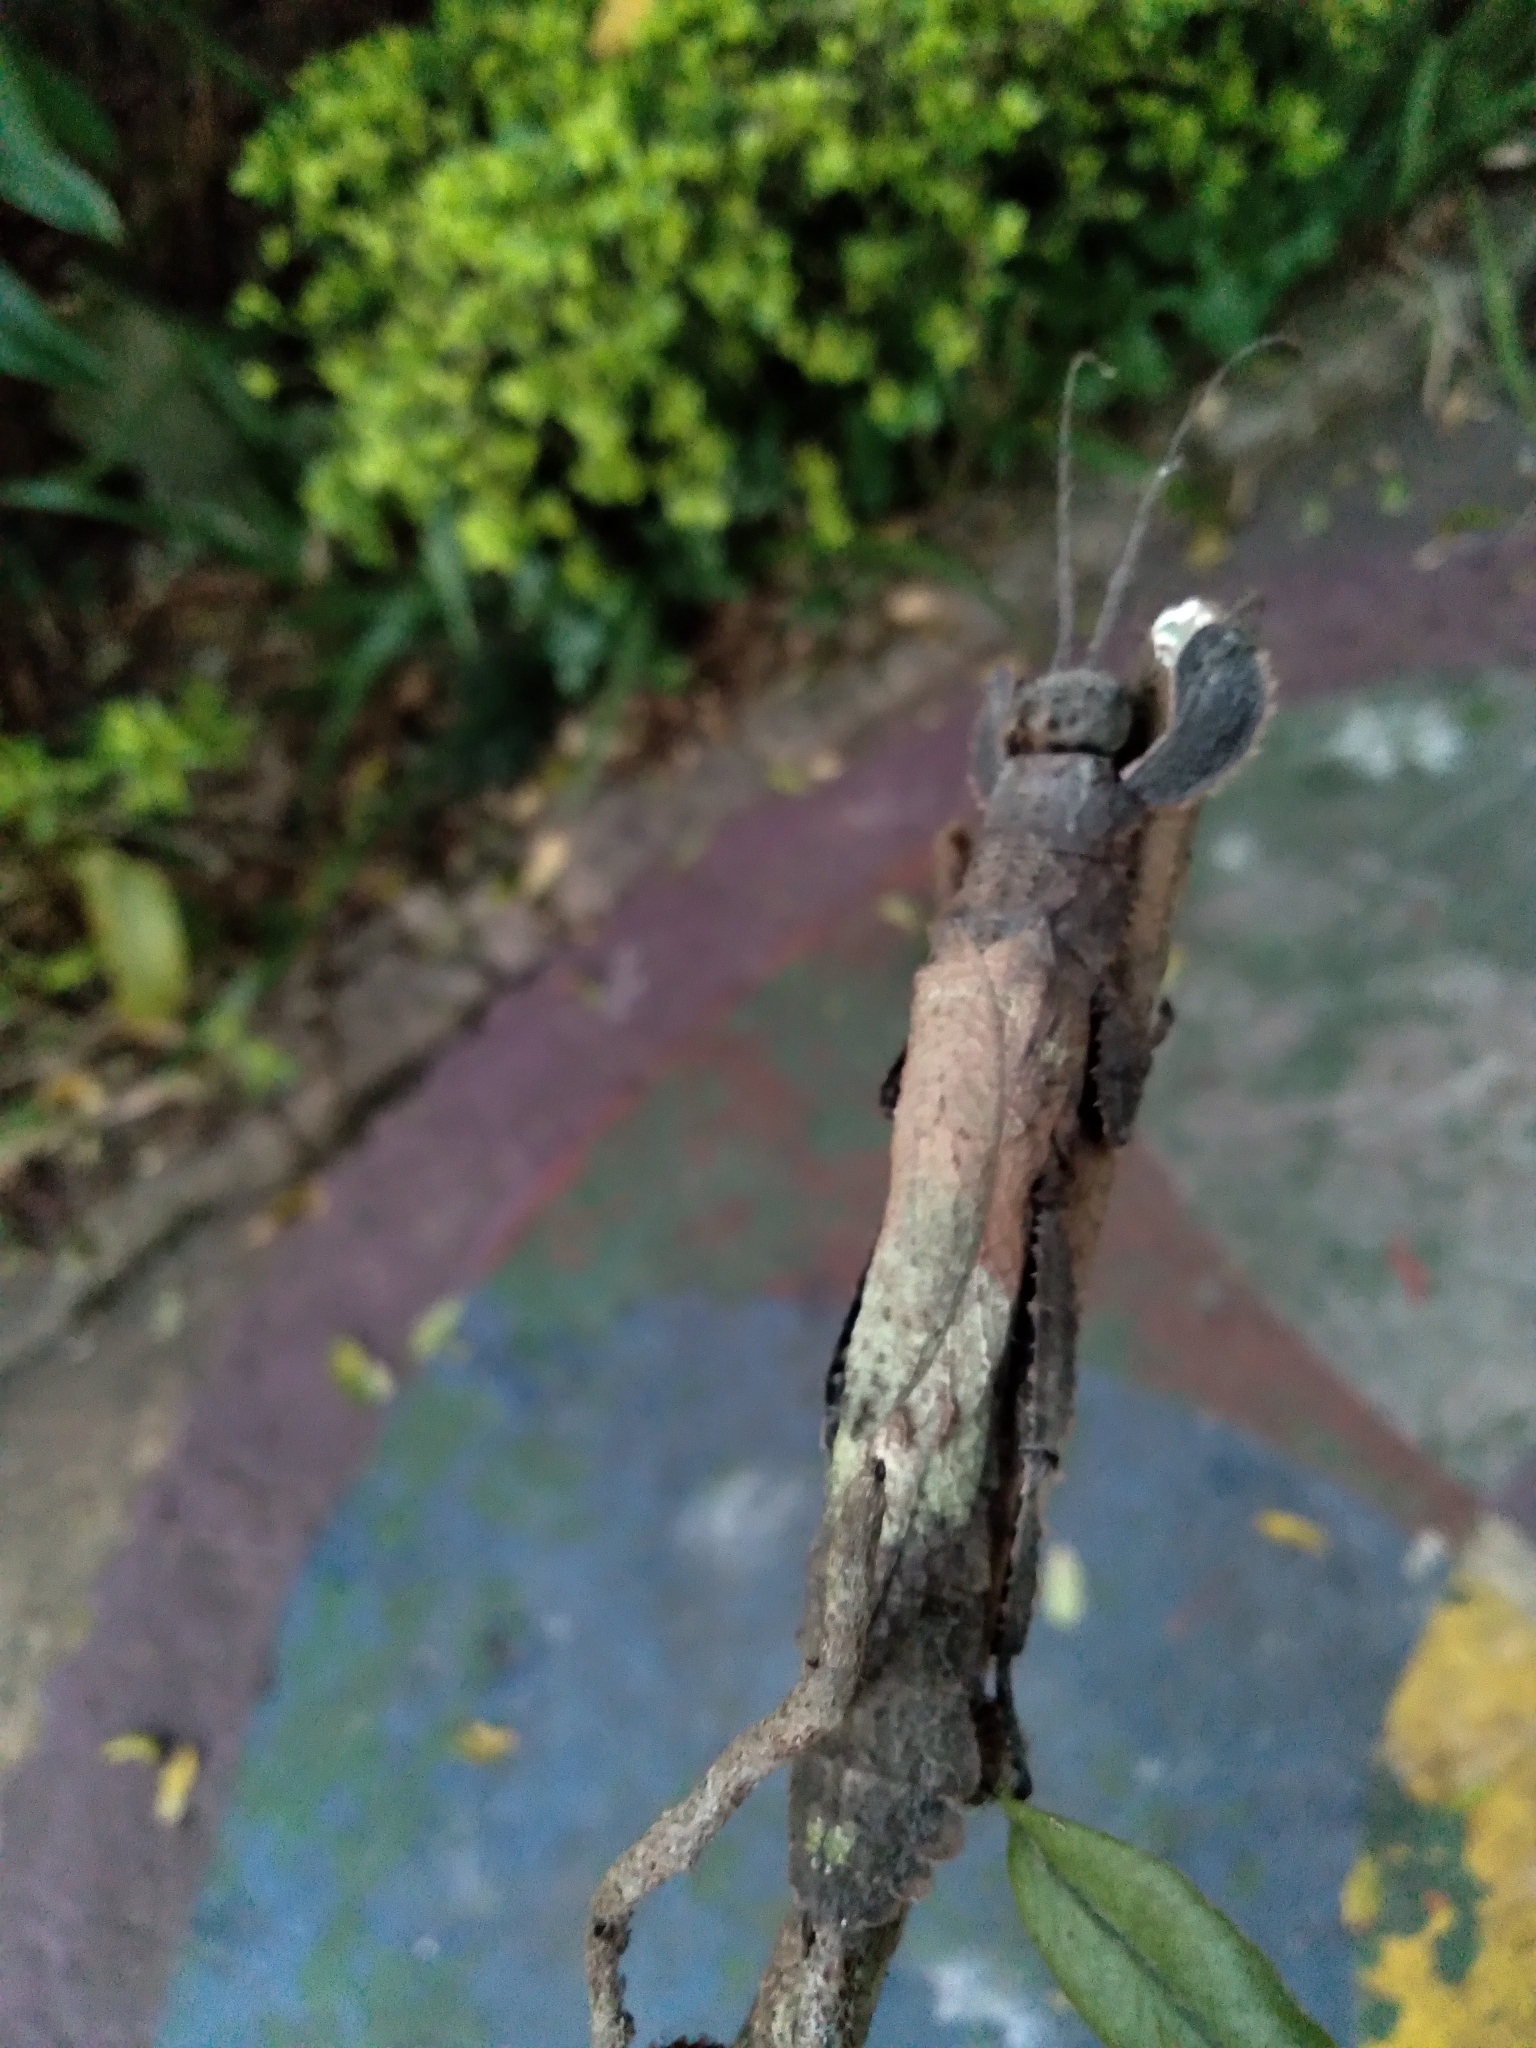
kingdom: Animalia
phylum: Arthropoda
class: Insecta
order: Phasmida
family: Prisopodidae
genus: Prisopus
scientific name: Prisopus ohrtmanni
